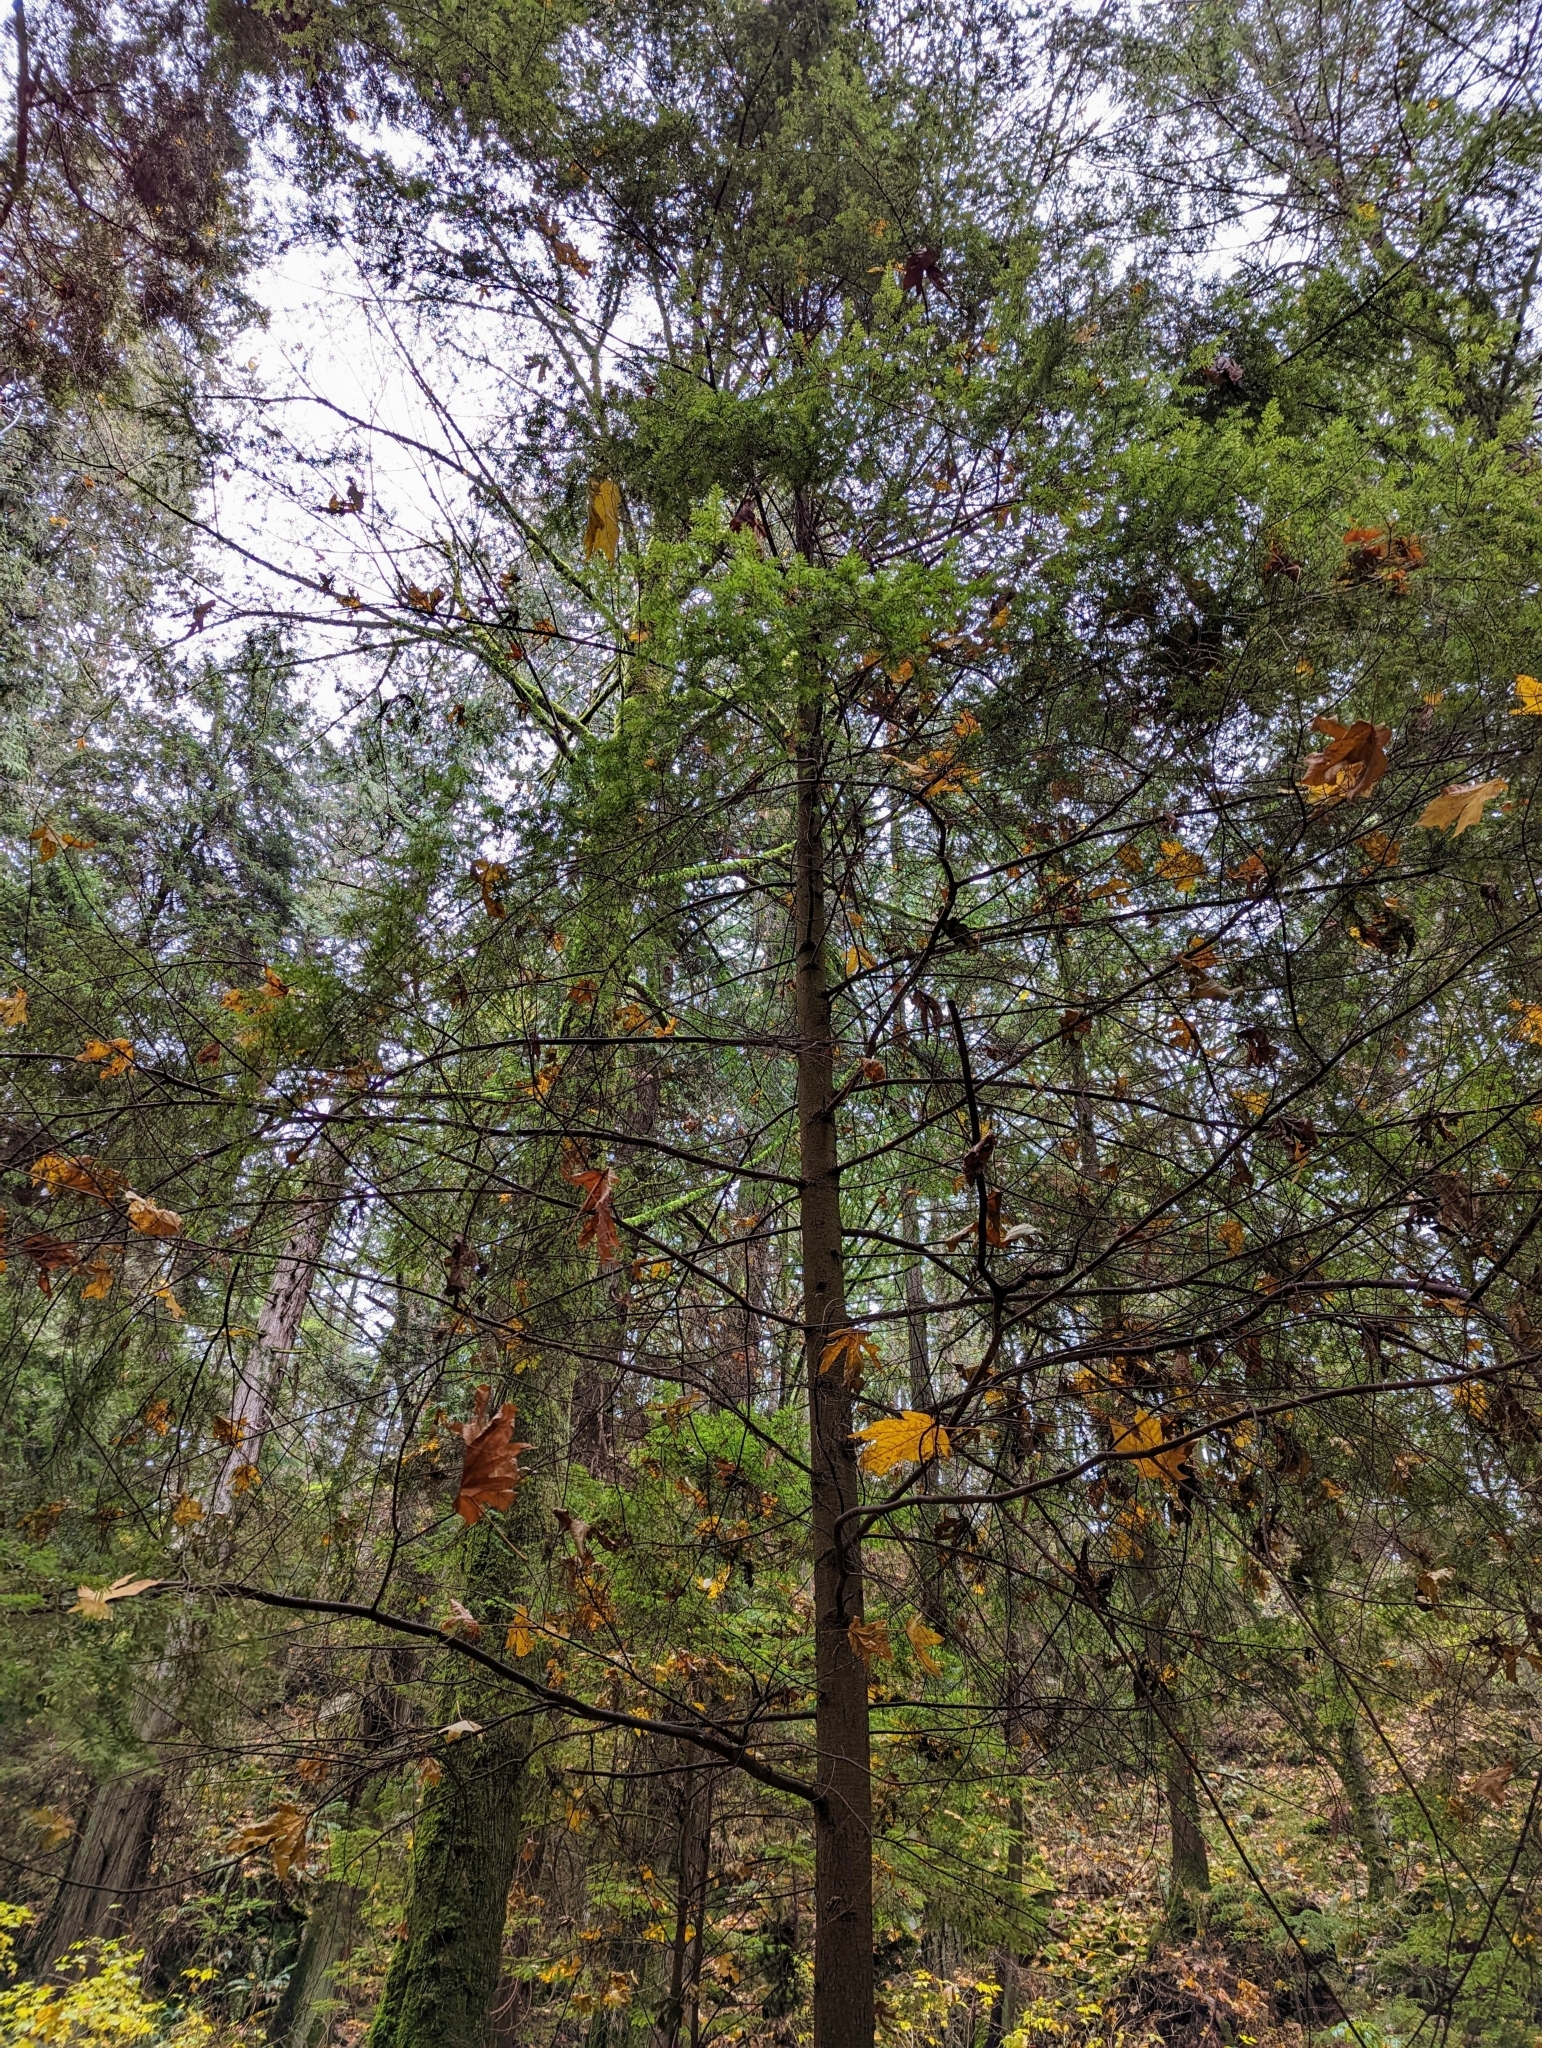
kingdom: Plantae
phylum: Tracheophyta
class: Pinopsida
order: Pinales
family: Pinaceae
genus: Tsuga
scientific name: Tsuga heterophylla
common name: Western hemlock
